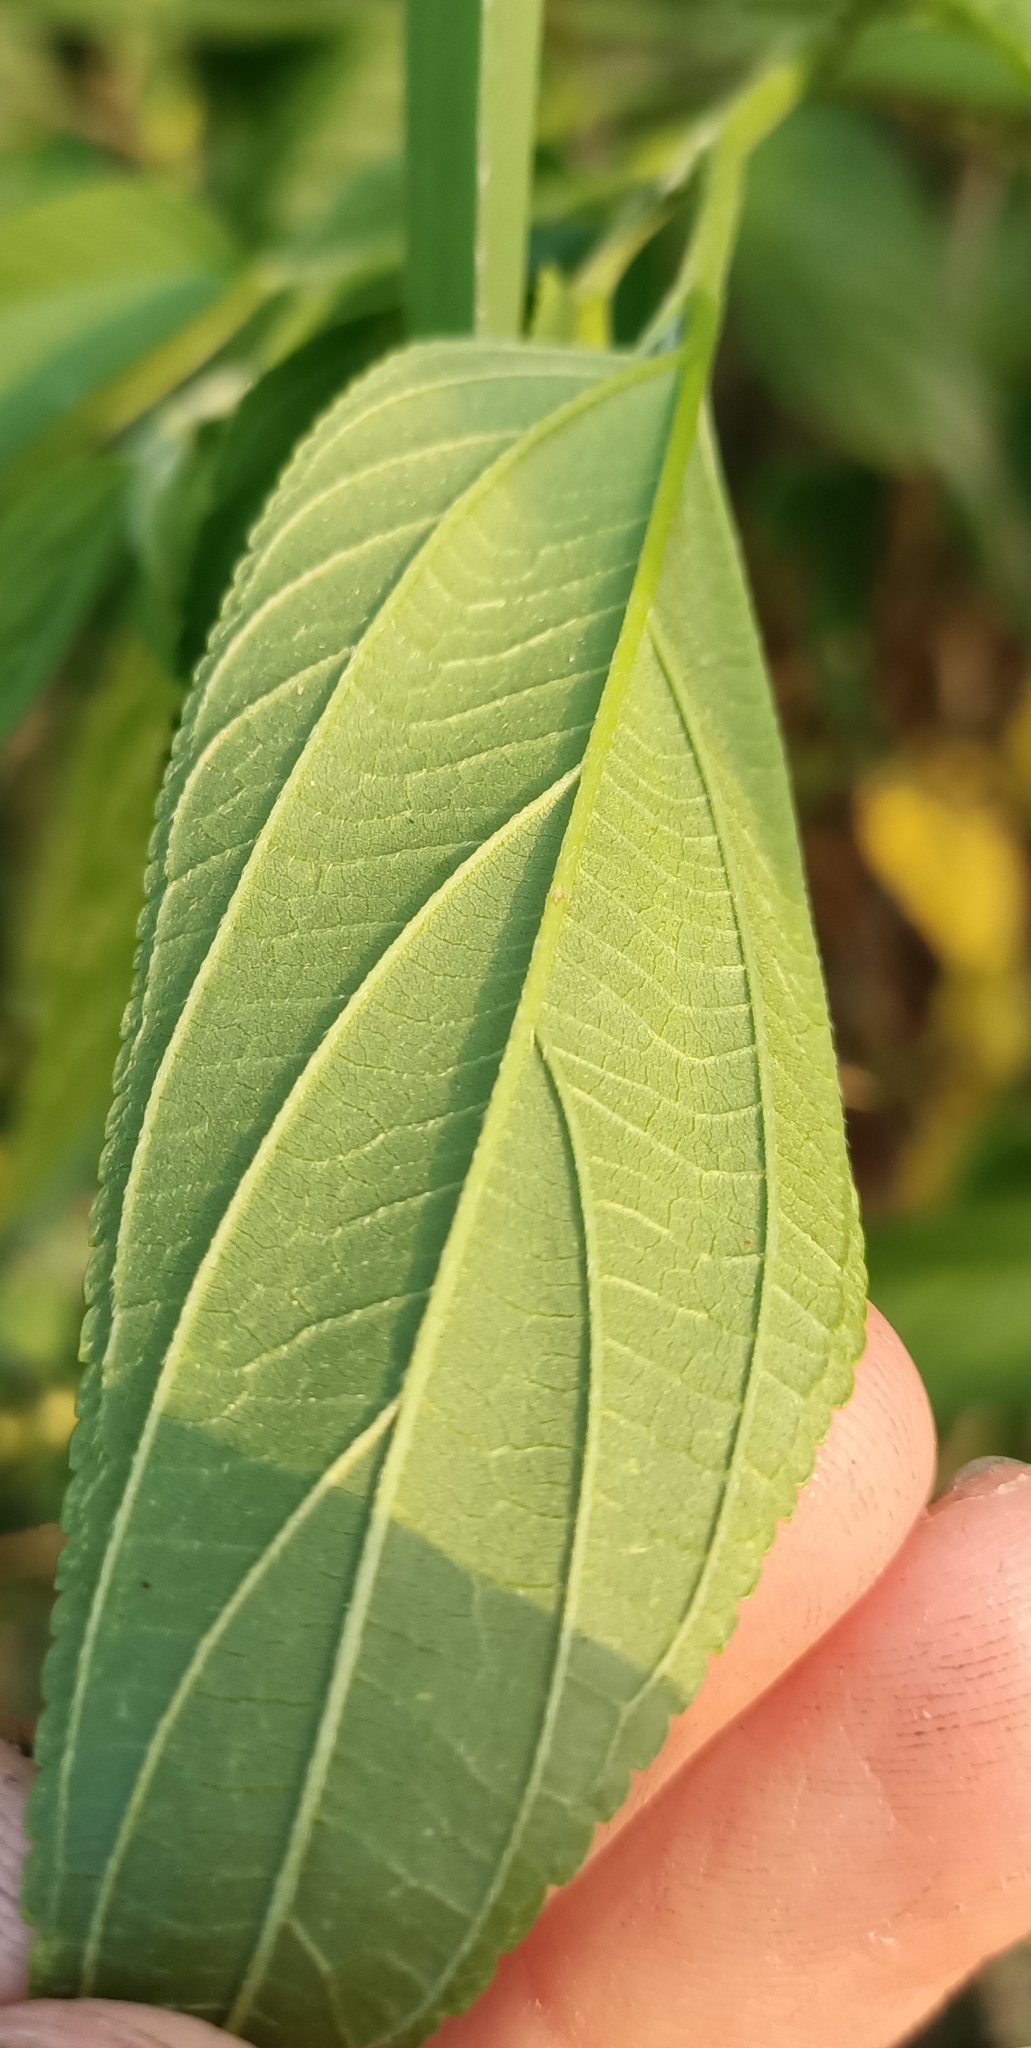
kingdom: Plantae
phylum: Tracheophyta
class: Magnoliopsida
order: Rosales
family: Cannabaceae
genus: Trema
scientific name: Trema tomentosum
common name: Peach-leaf-poisonbush
